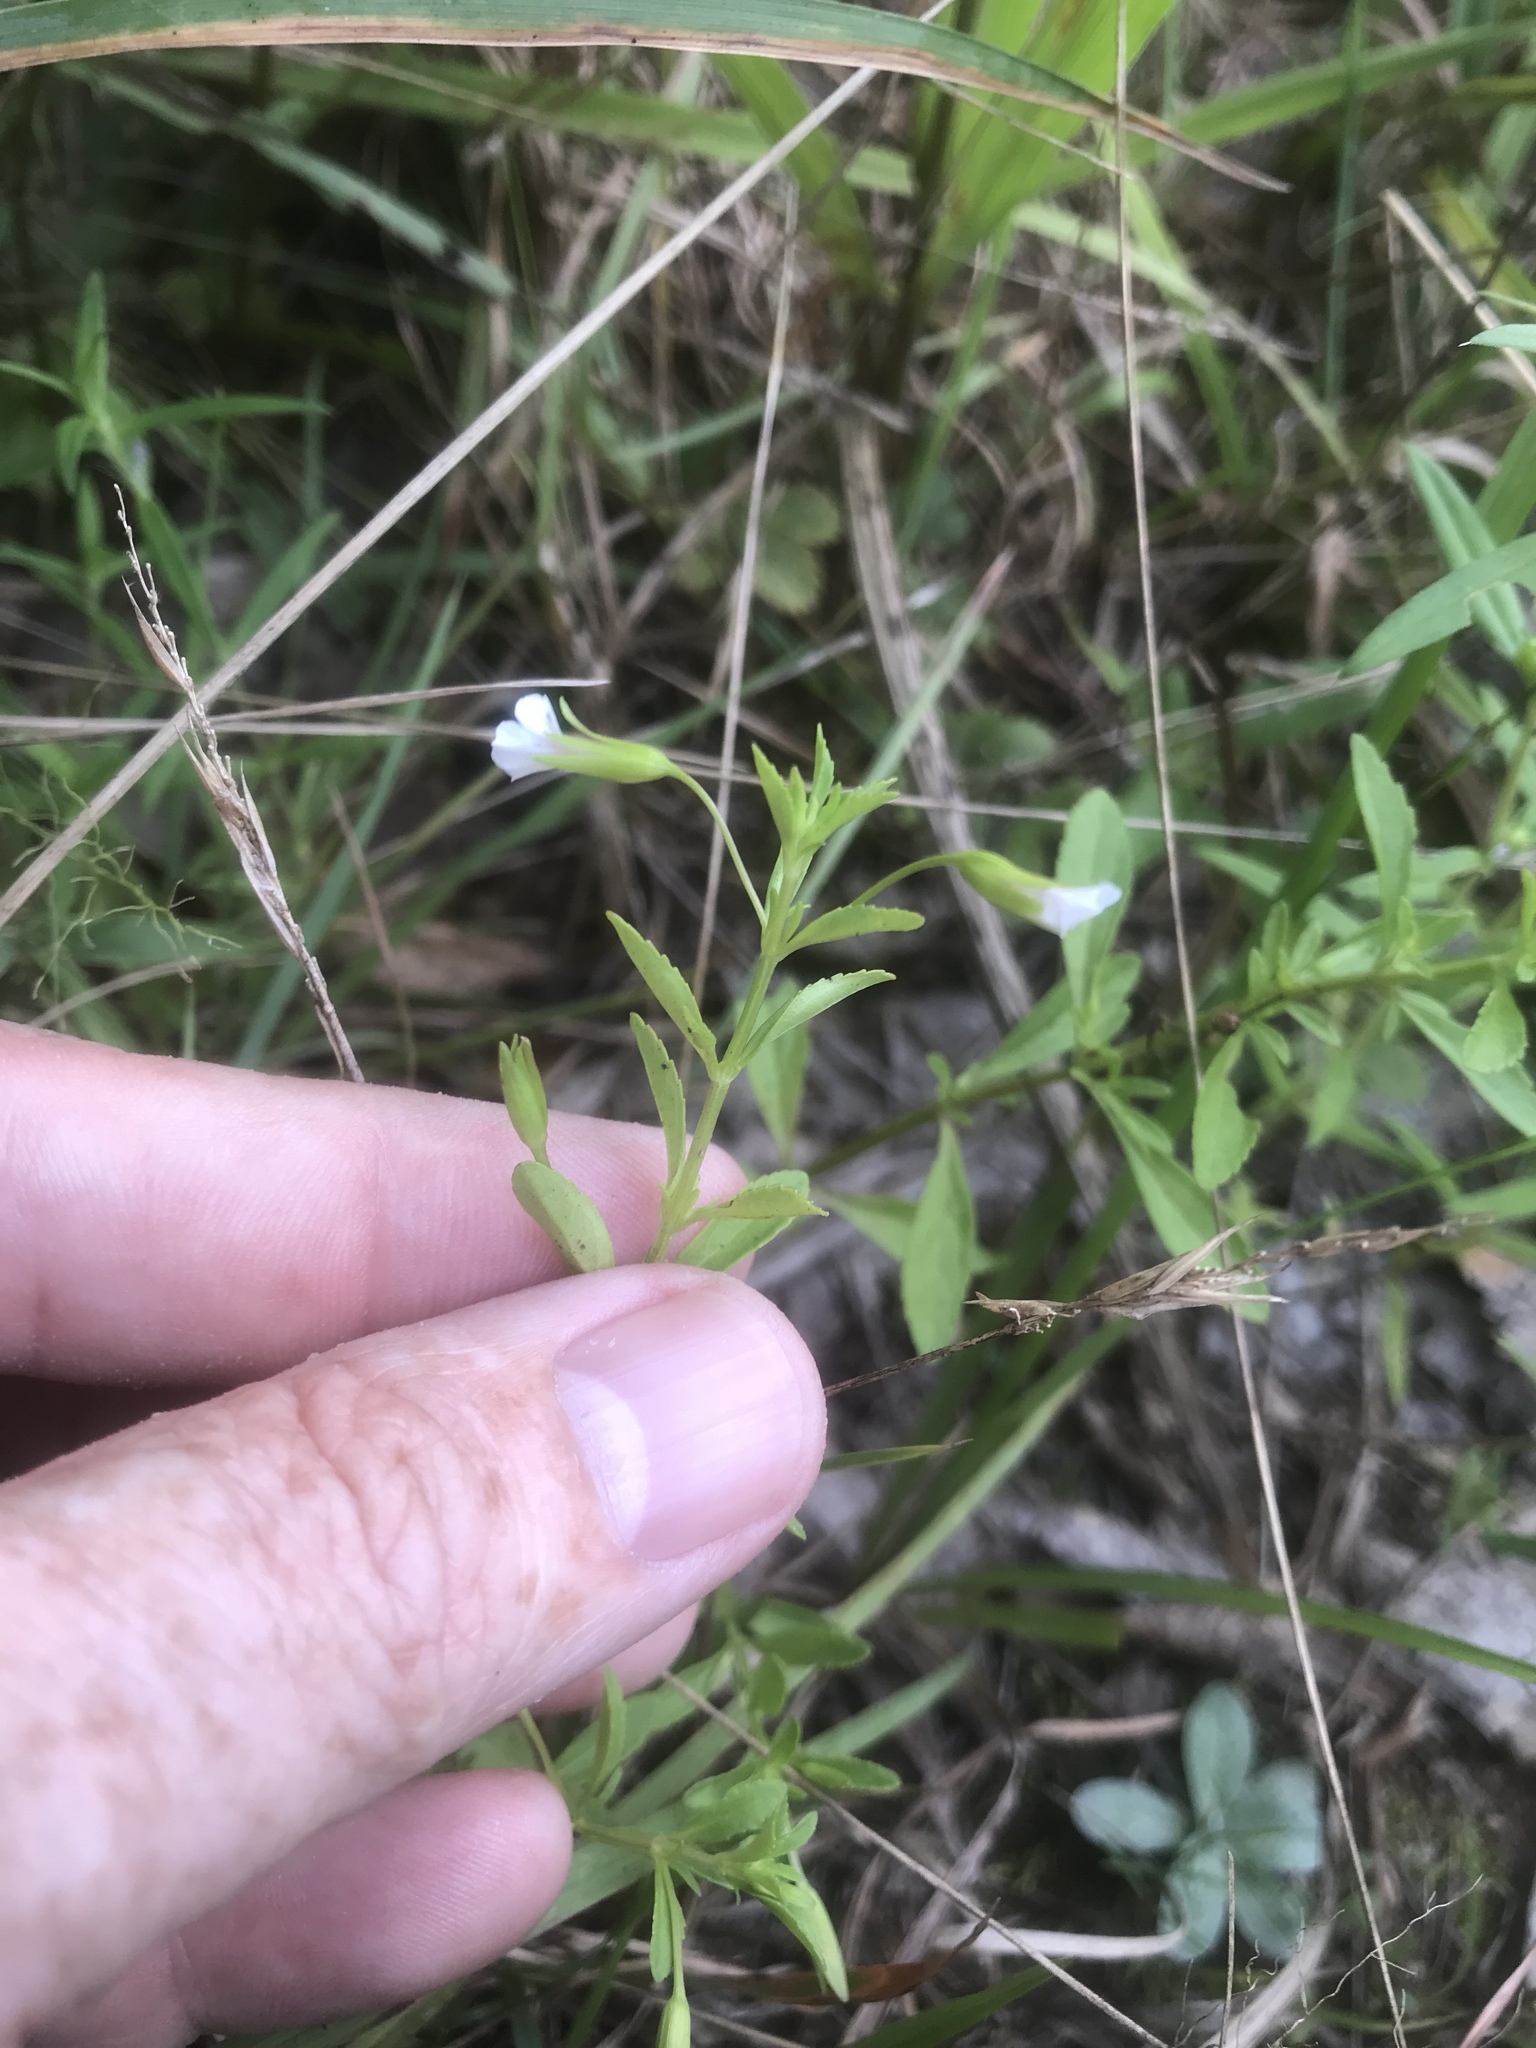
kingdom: Plantae
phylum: Tracheophyta
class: Magnoliopsida
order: Lamiales
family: Plantaginaceae
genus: Mecardonia
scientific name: Mecardonia acuminata
